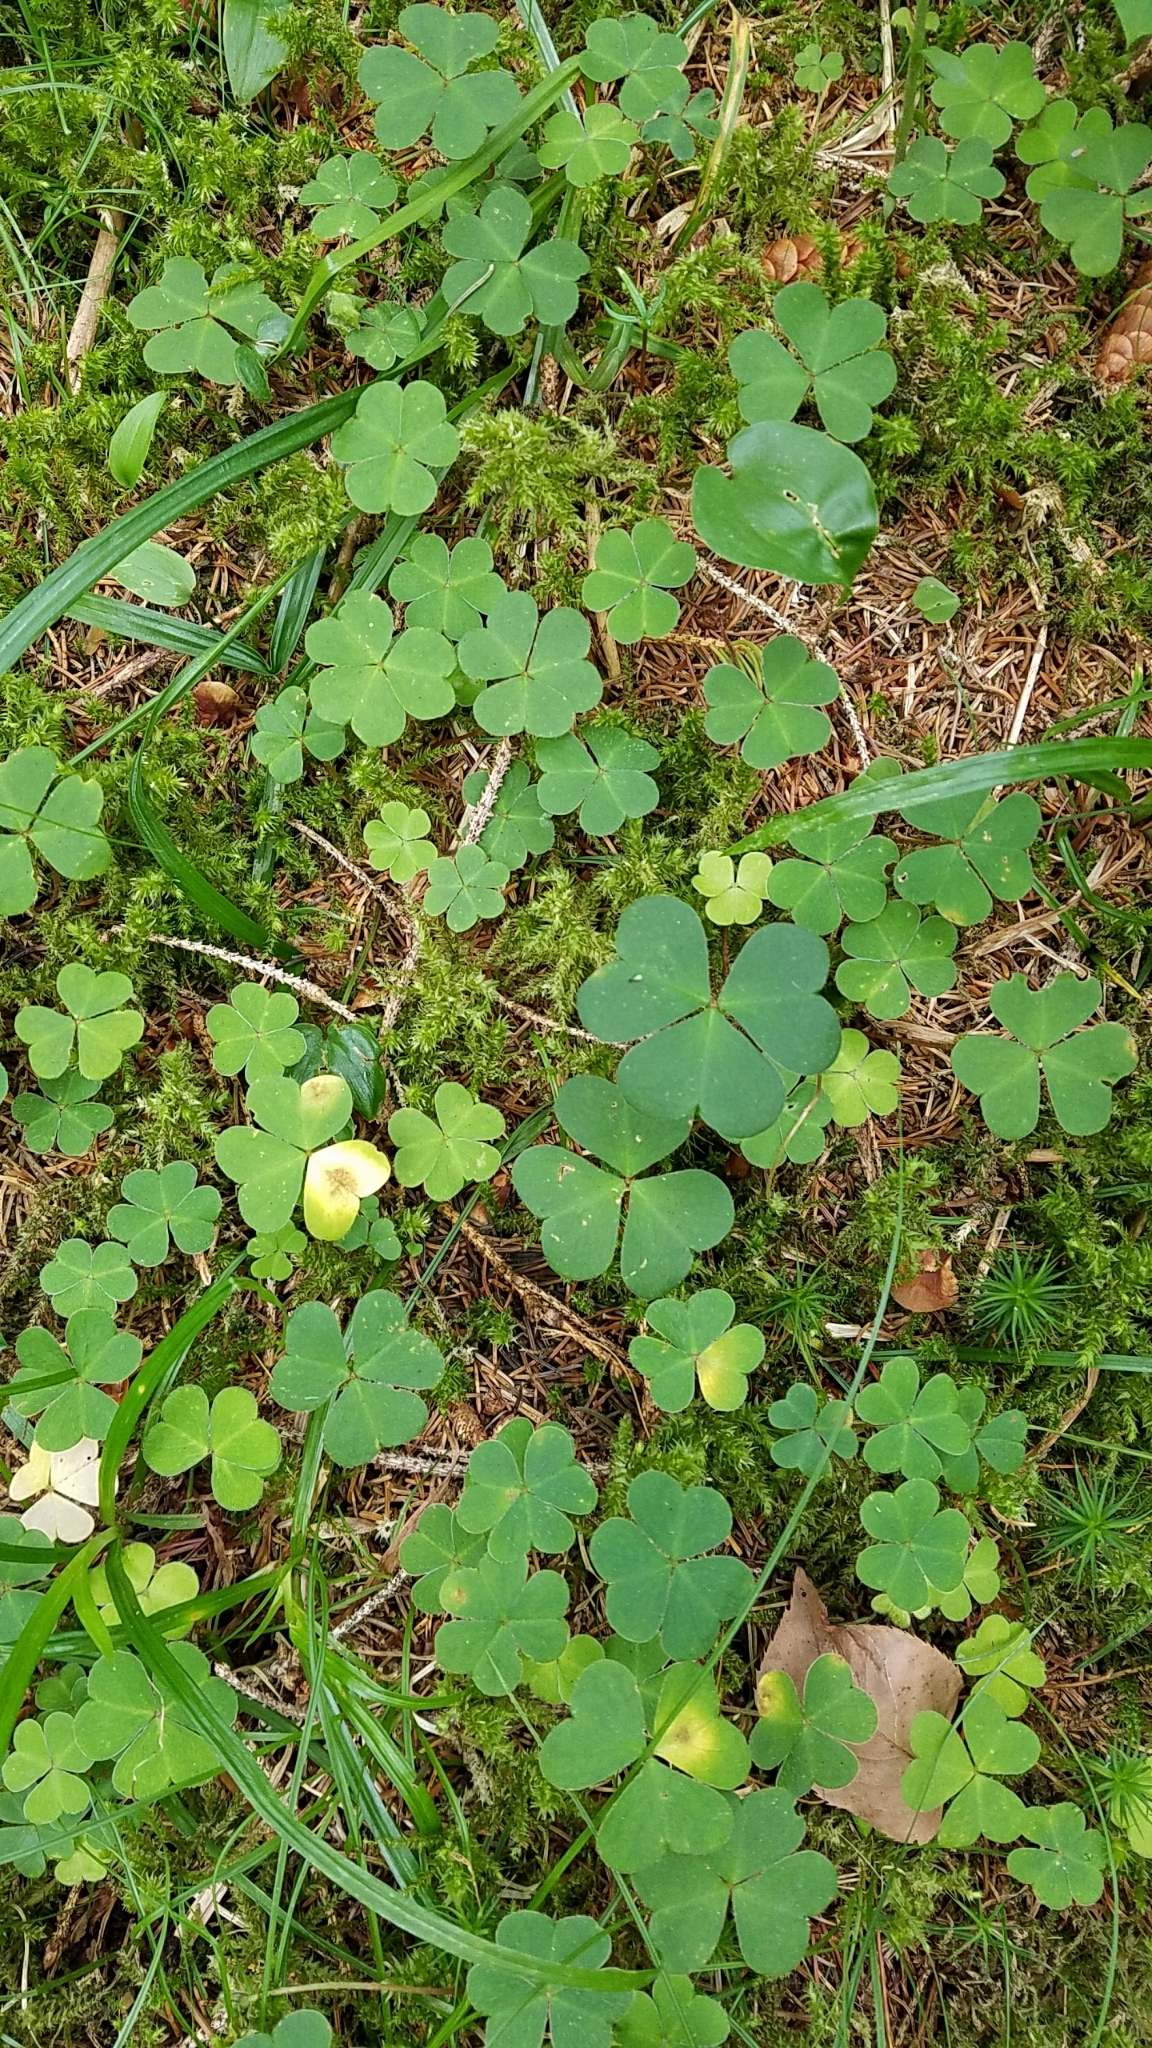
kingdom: Plantae
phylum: Tracheophyta
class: Magnoliopsida
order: Oxalidales
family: Oxalidaceae
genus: Oxalis
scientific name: Oxalis montana
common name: American wood-sorrel
